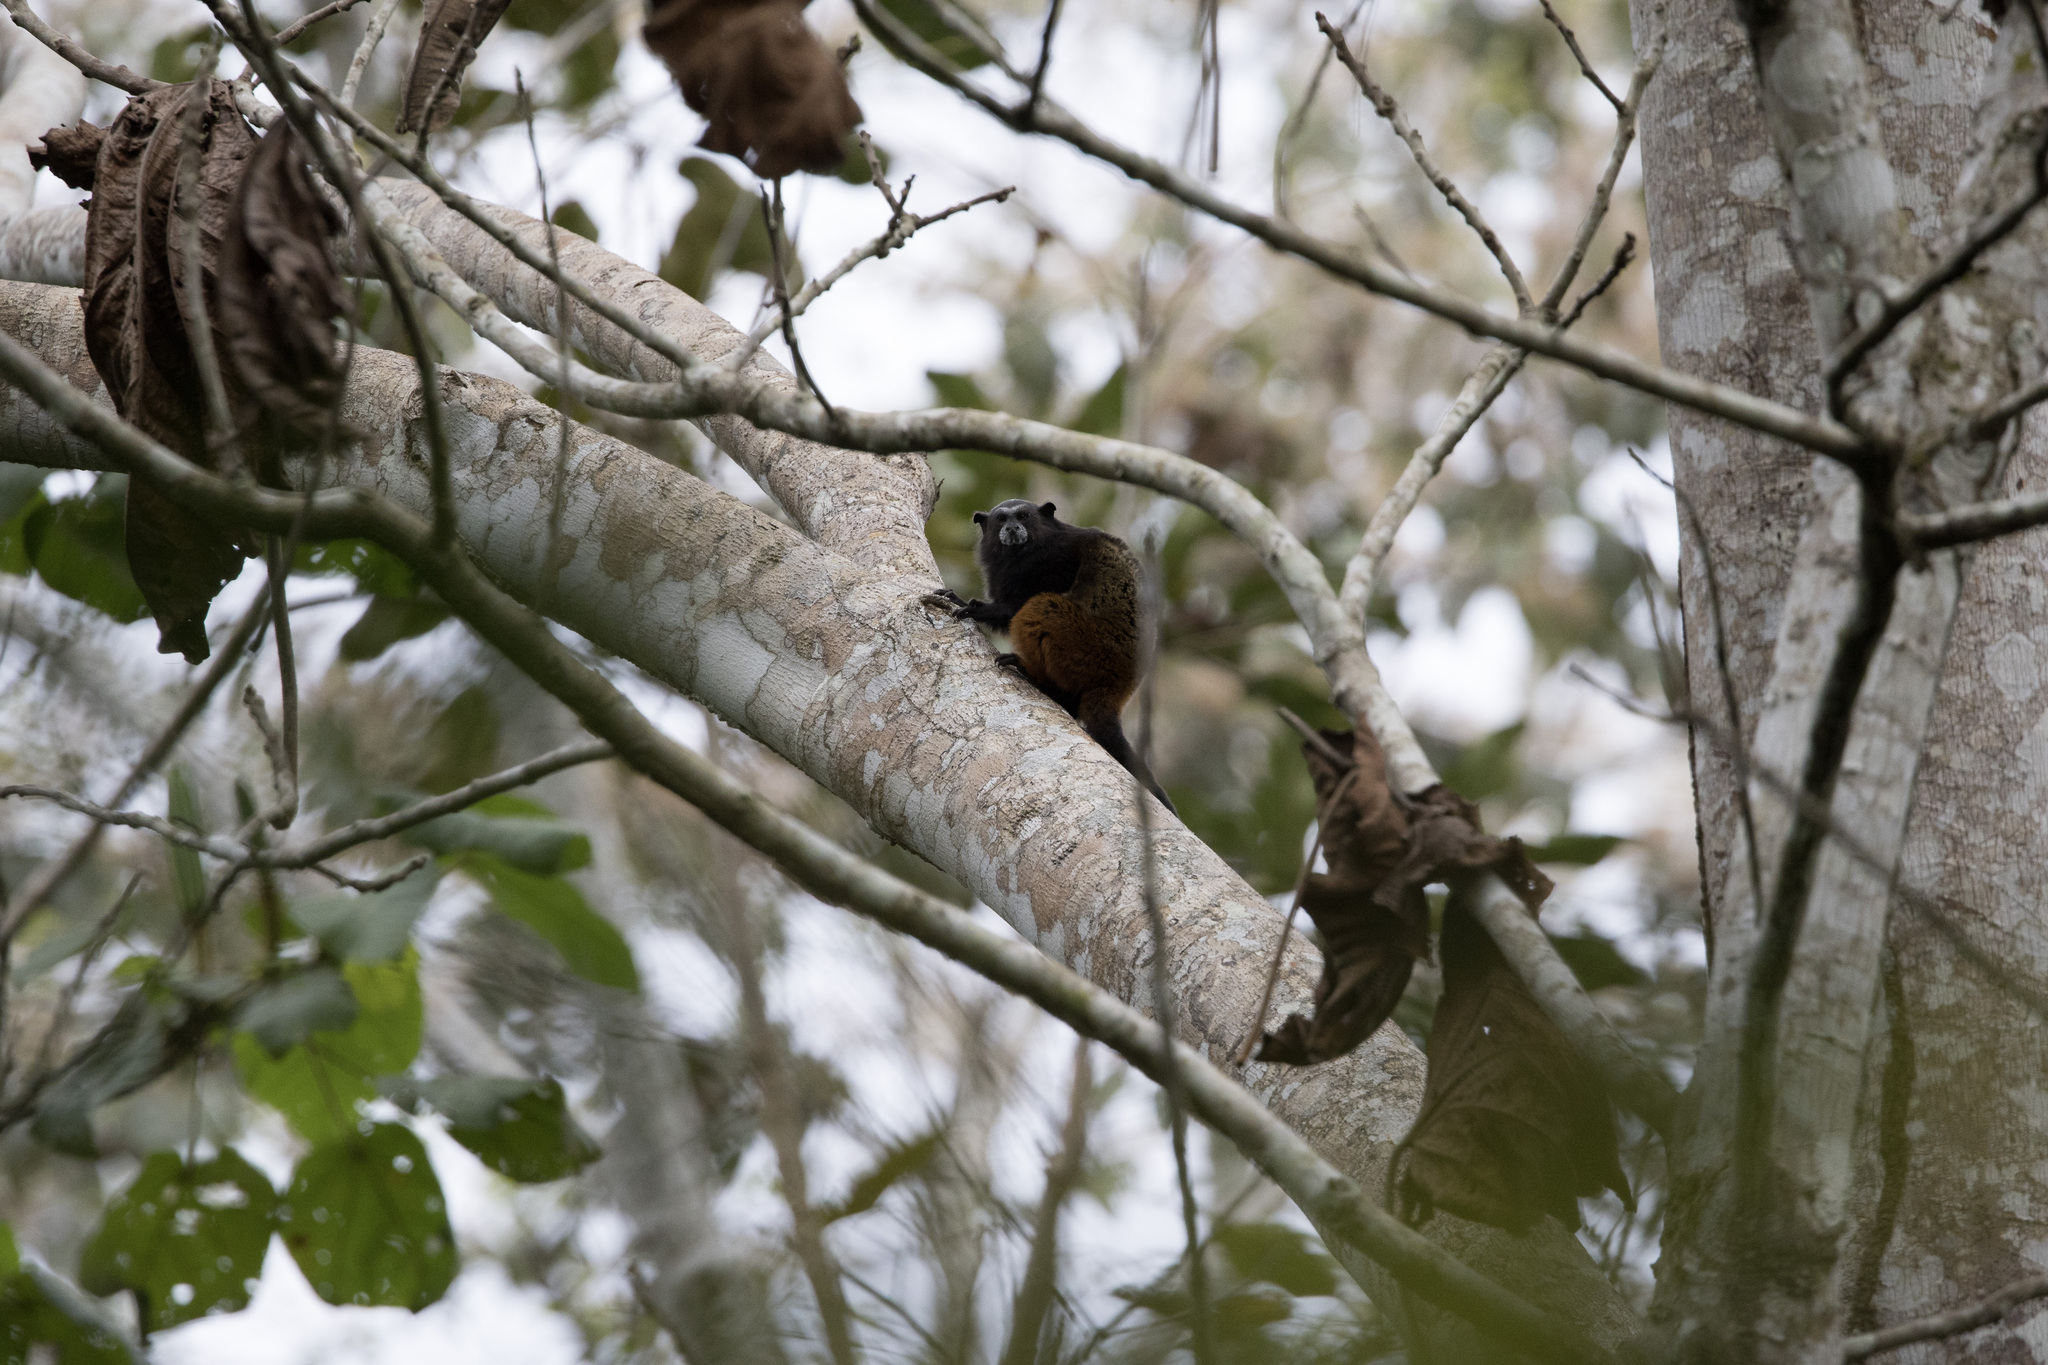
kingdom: Animalia
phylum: Chordata
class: Mammalia
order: Primates
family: Callitrichidae
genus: Leontocebus
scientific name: Leontocebus weddelli
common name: Weddell's saddle-back tamarin
